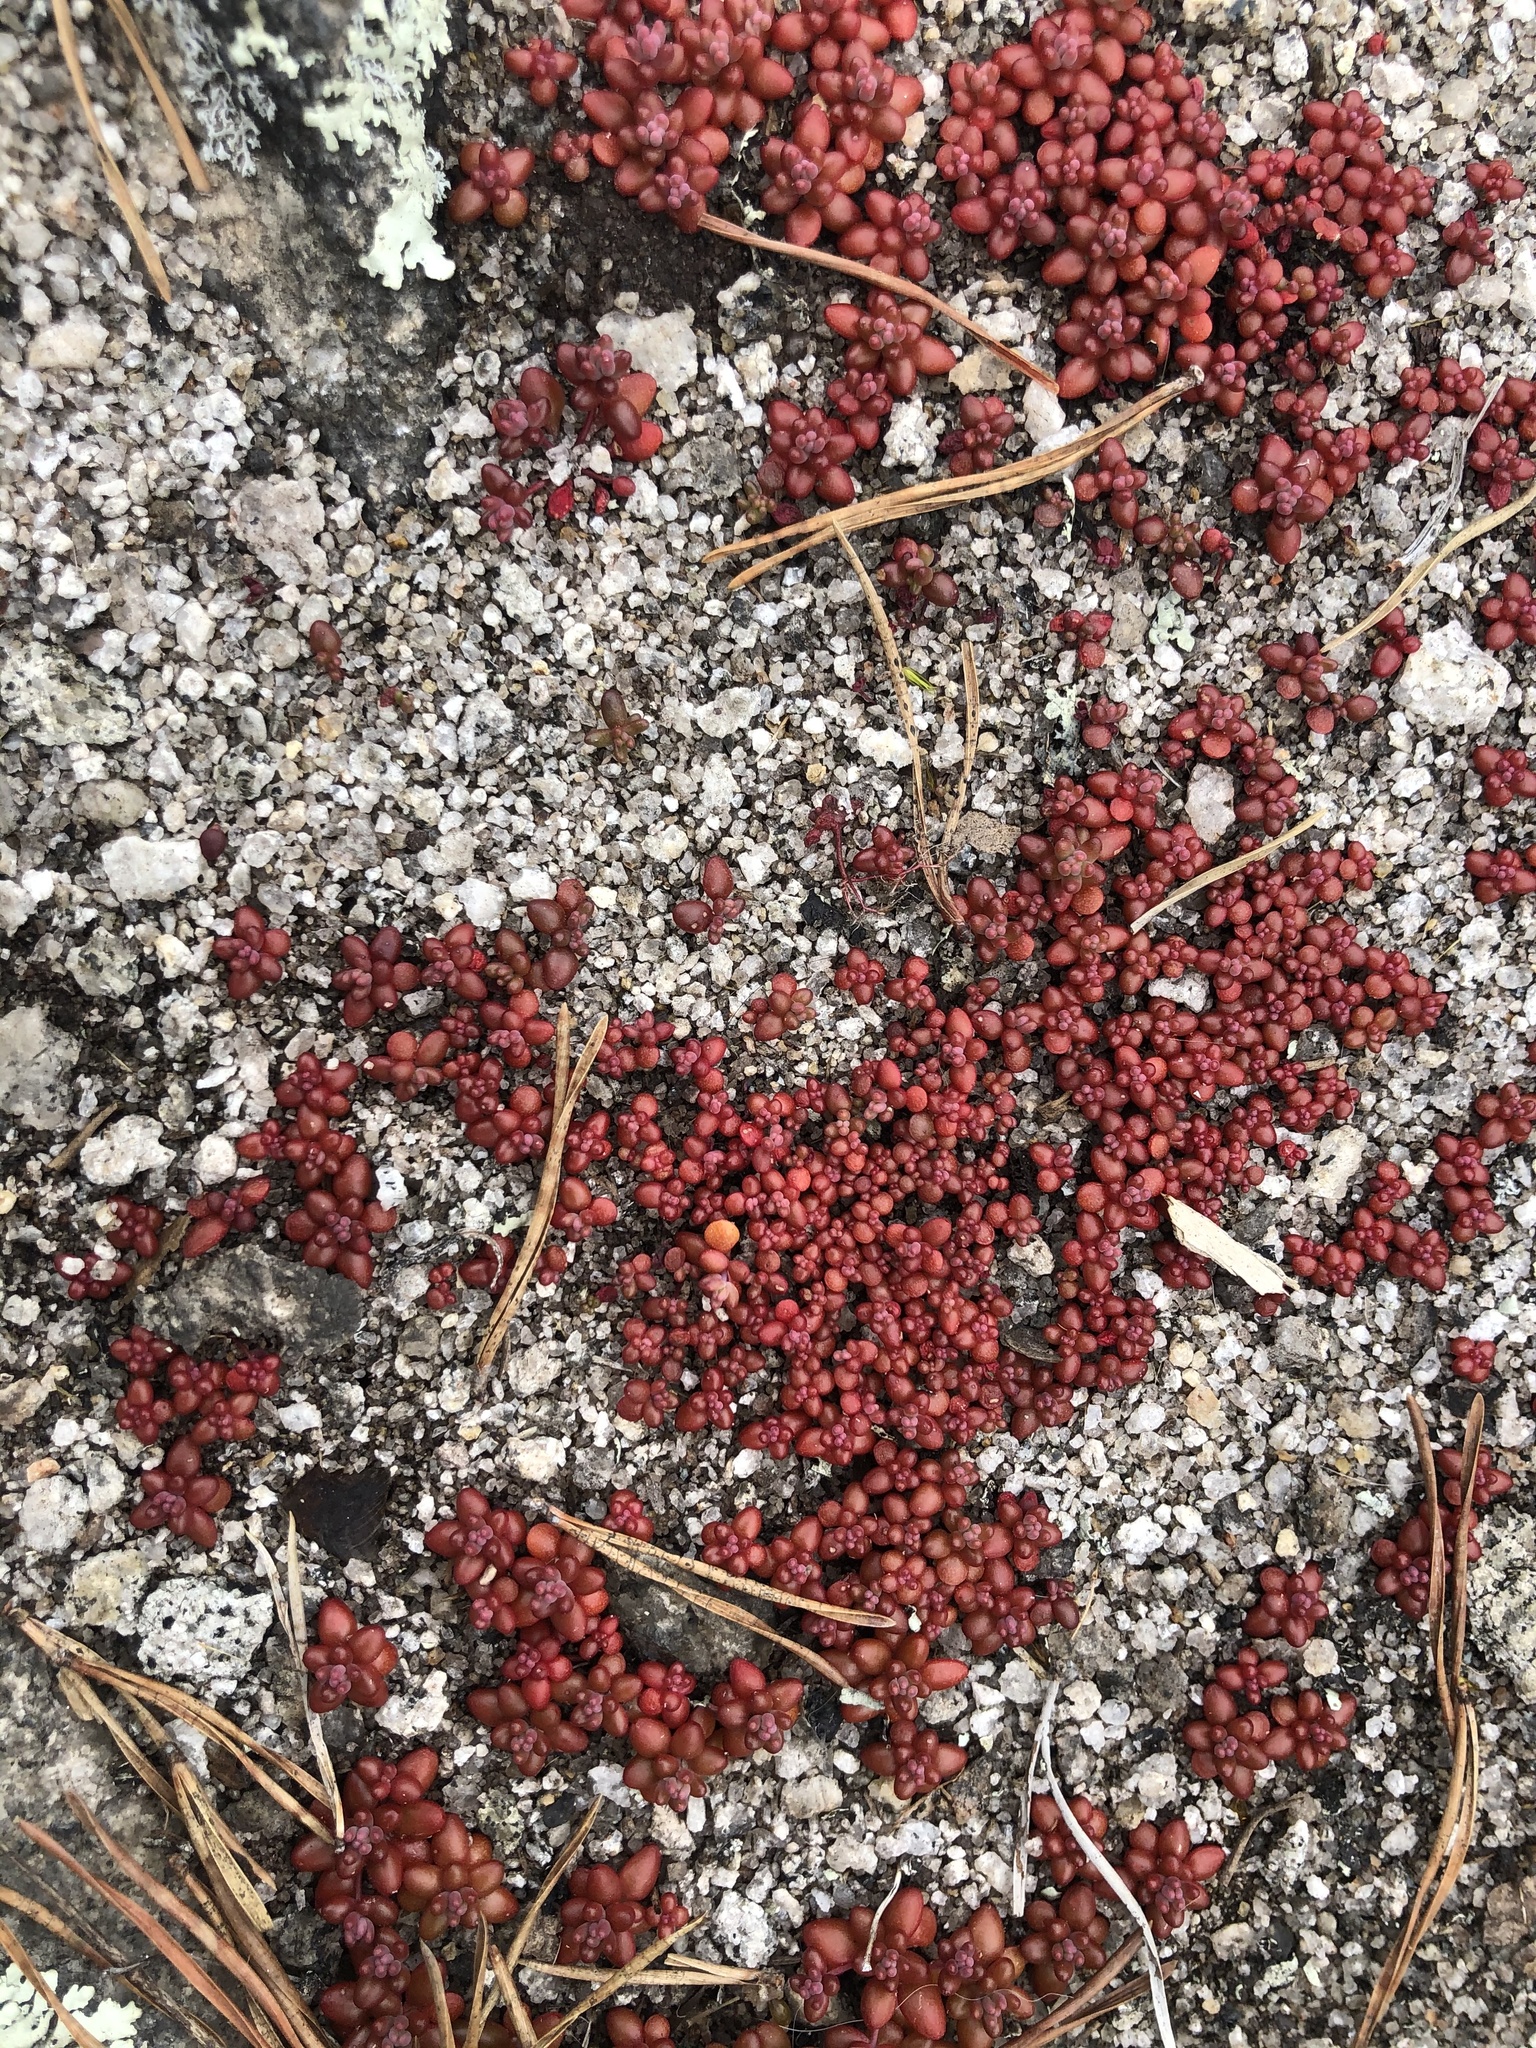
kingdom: Plantae
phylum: Tracheophyta
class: Magnoliopsida
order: Saxifragales
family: Crassulaceae
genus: Sedum
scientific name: Sedum smallii
